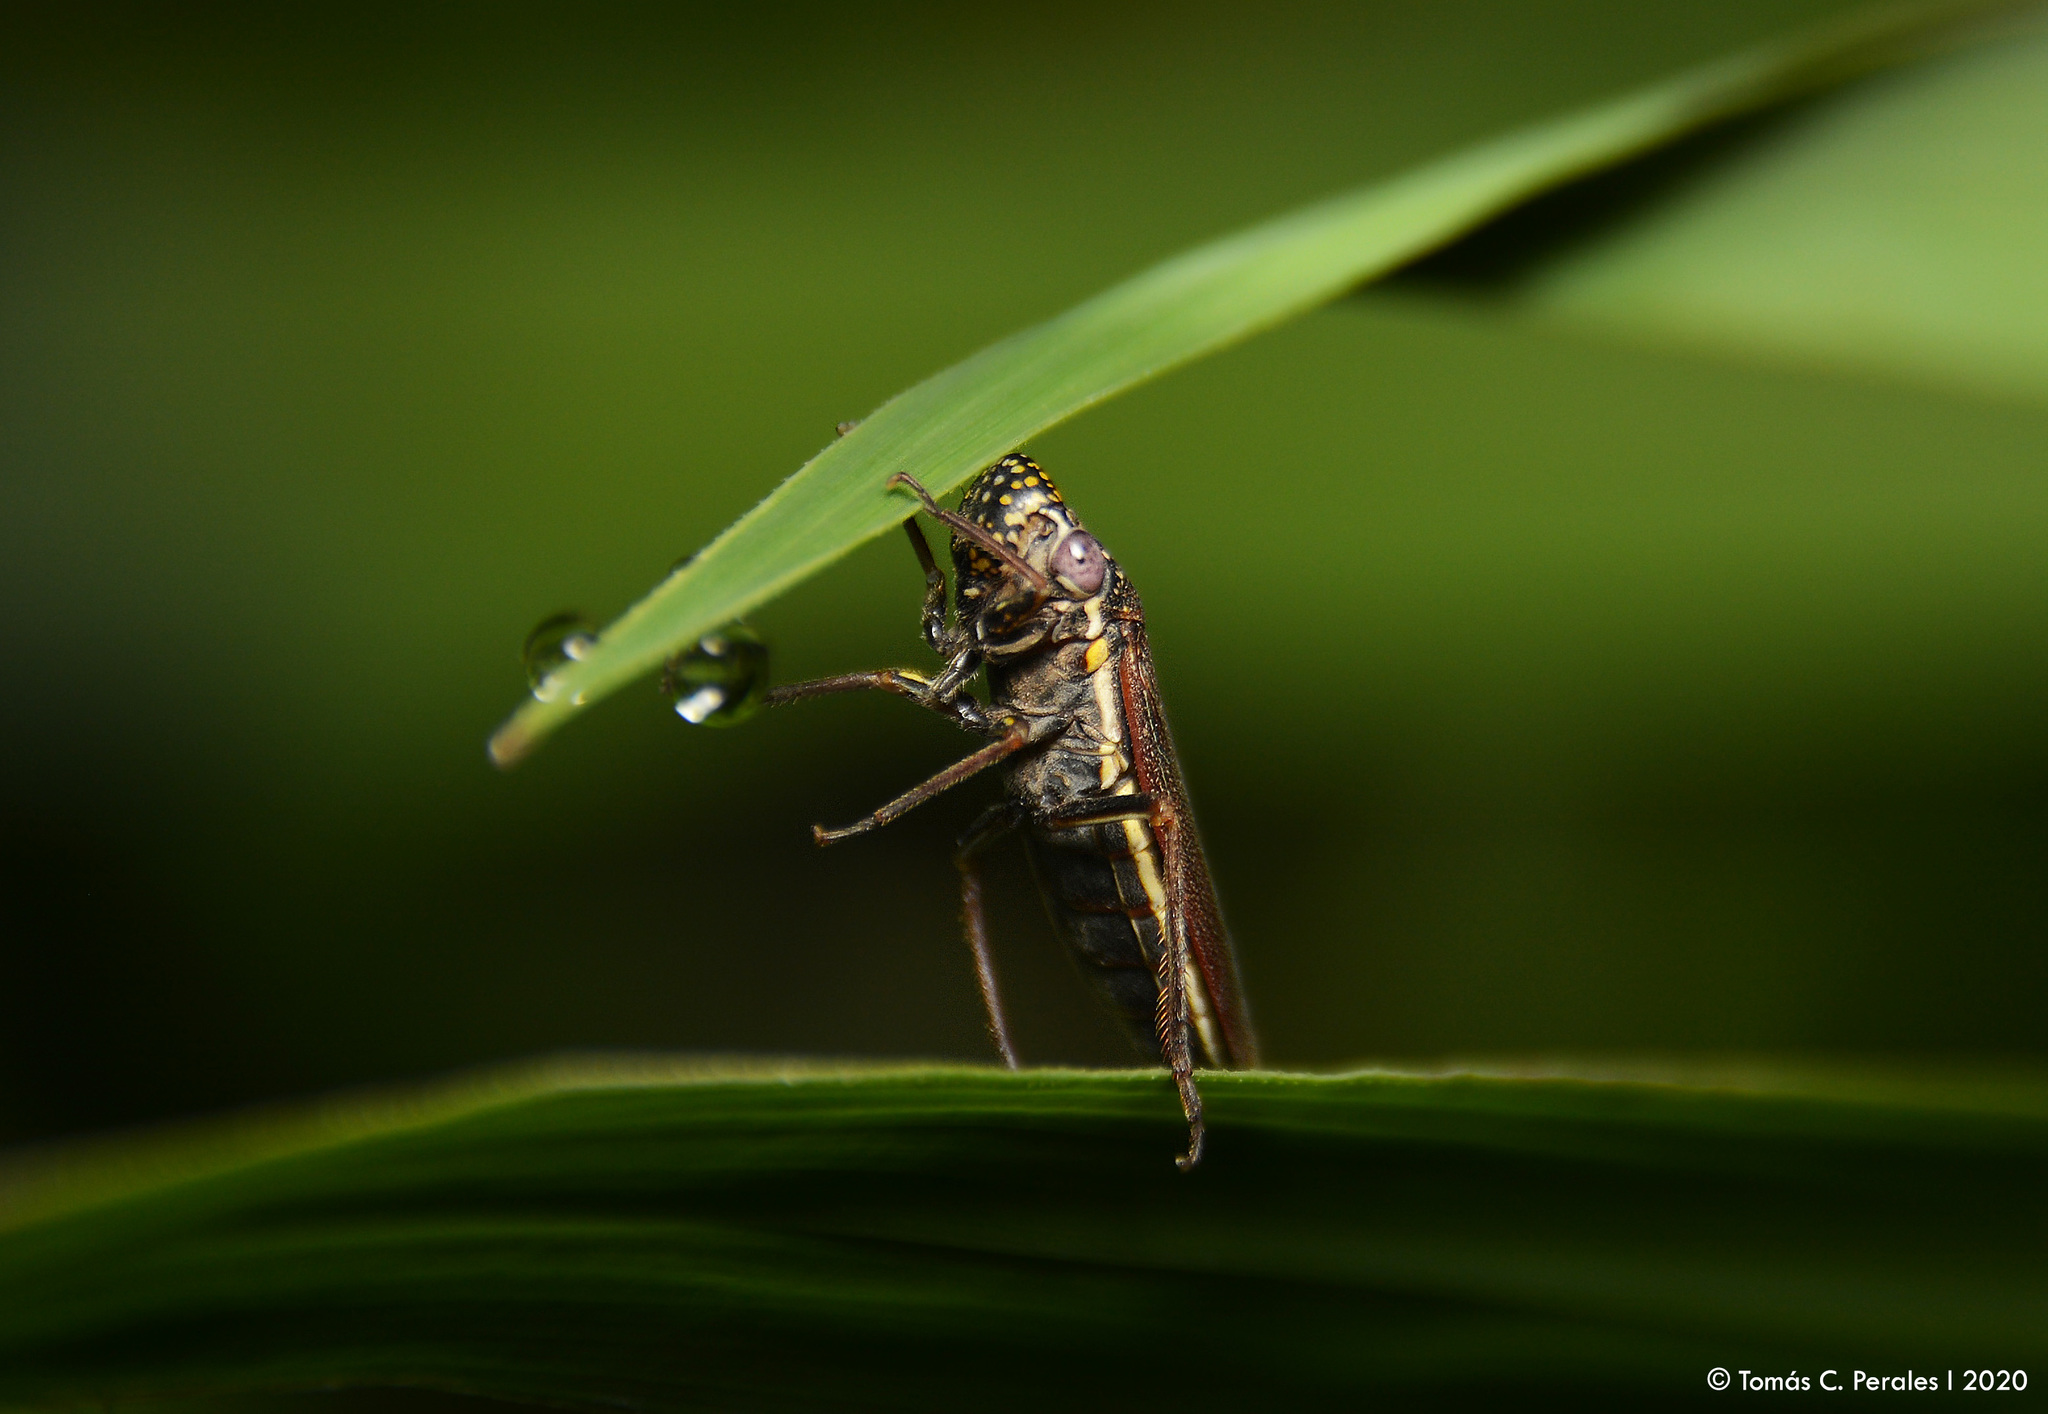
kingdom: Animalia
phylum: Arthropoda
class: Insecta
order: Hemiptera
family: Cicadellidae
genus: Tapajosa
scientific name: Tapajosa rubromarginata
